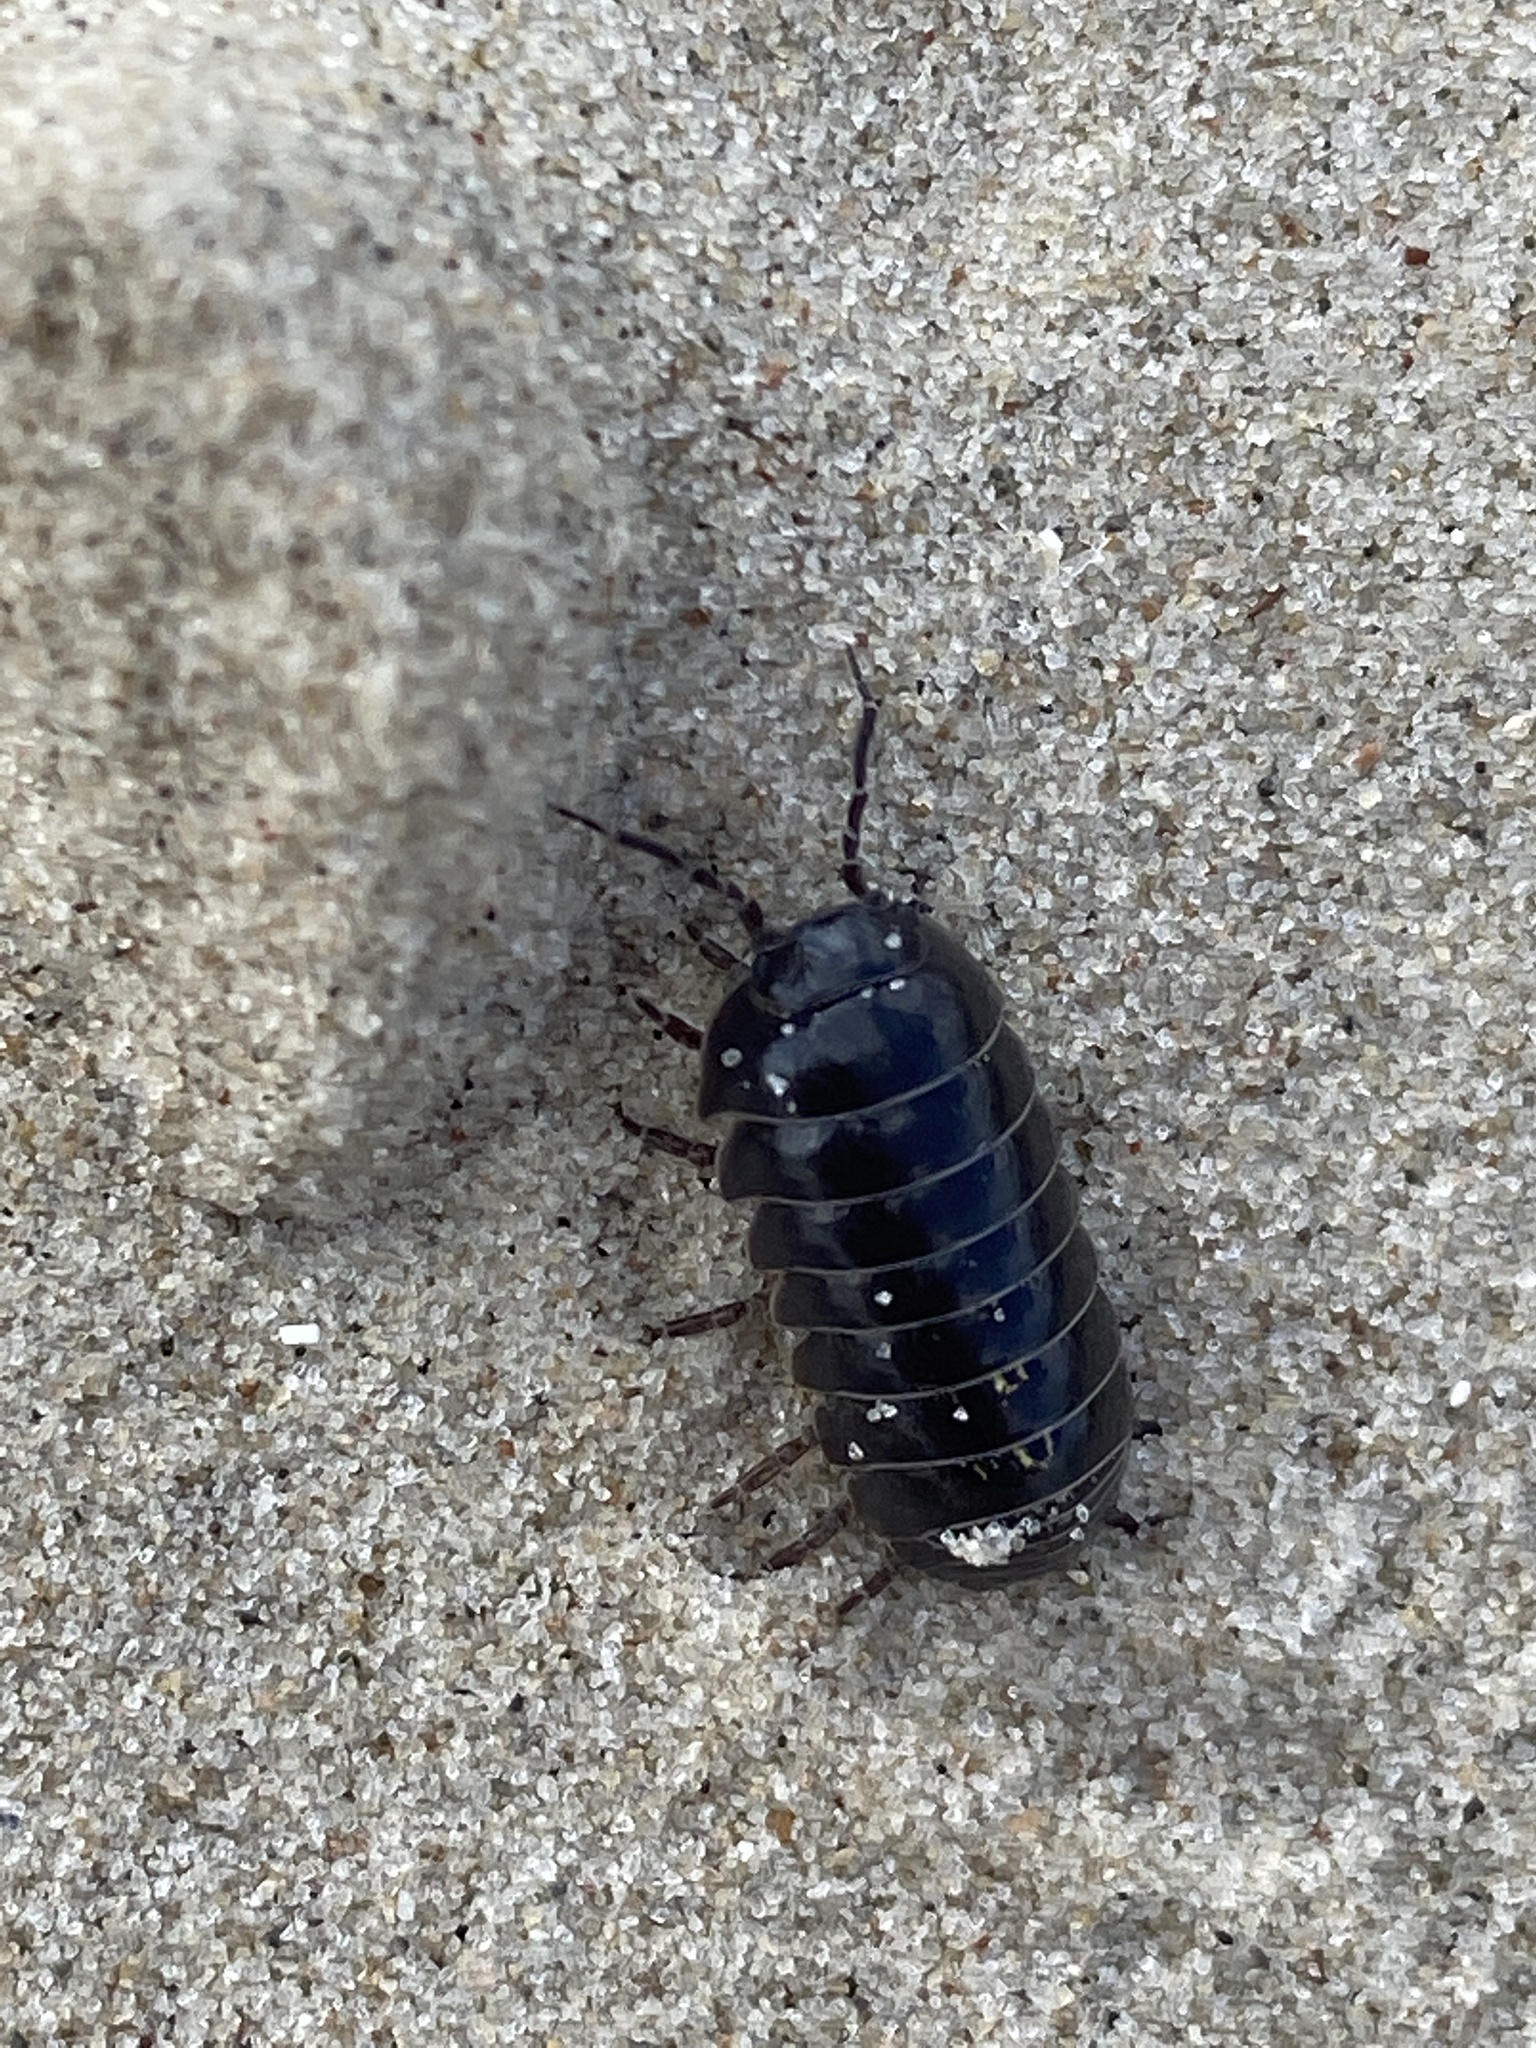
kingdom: Animalia
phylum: Arthropoda
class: Malacostraca
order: Isopoda
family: Armadillidiidae
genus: Armadillidium
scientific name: Armadillidium vulgare
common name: Common pill woodlouse
